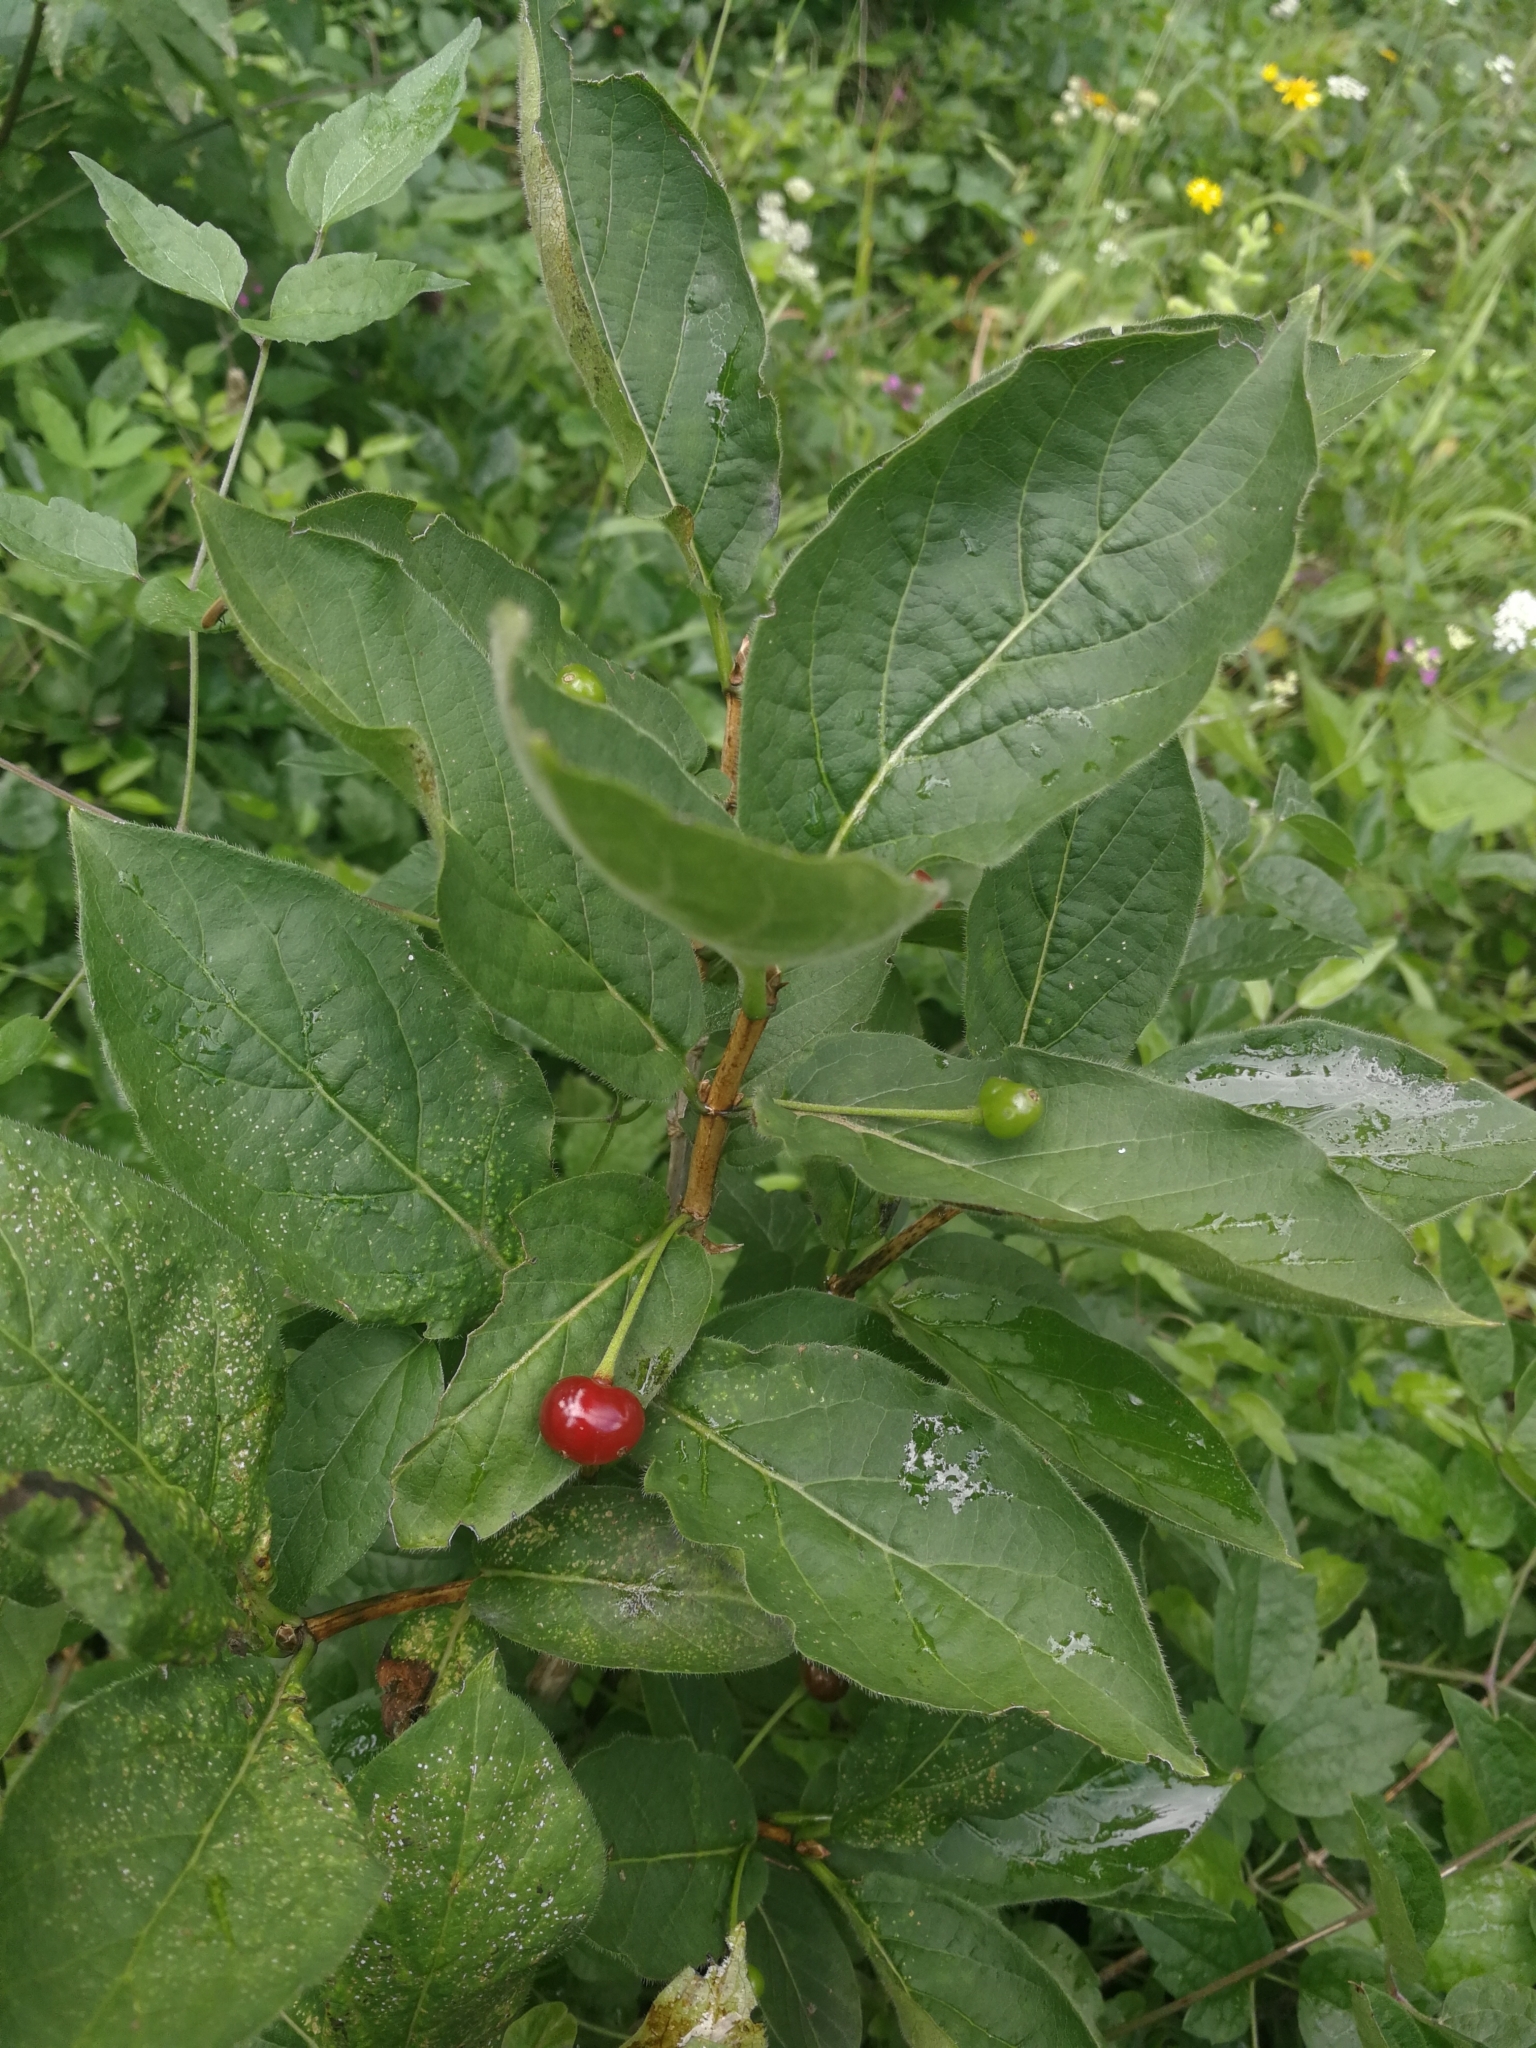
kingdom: Plantae
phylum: Tracheophyta
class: Magnoliopsida
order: Dipsacales
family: Caprifoliaceae
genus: Lonicera
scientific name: Lonicera alpigena
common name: Alpine honeysuckle
